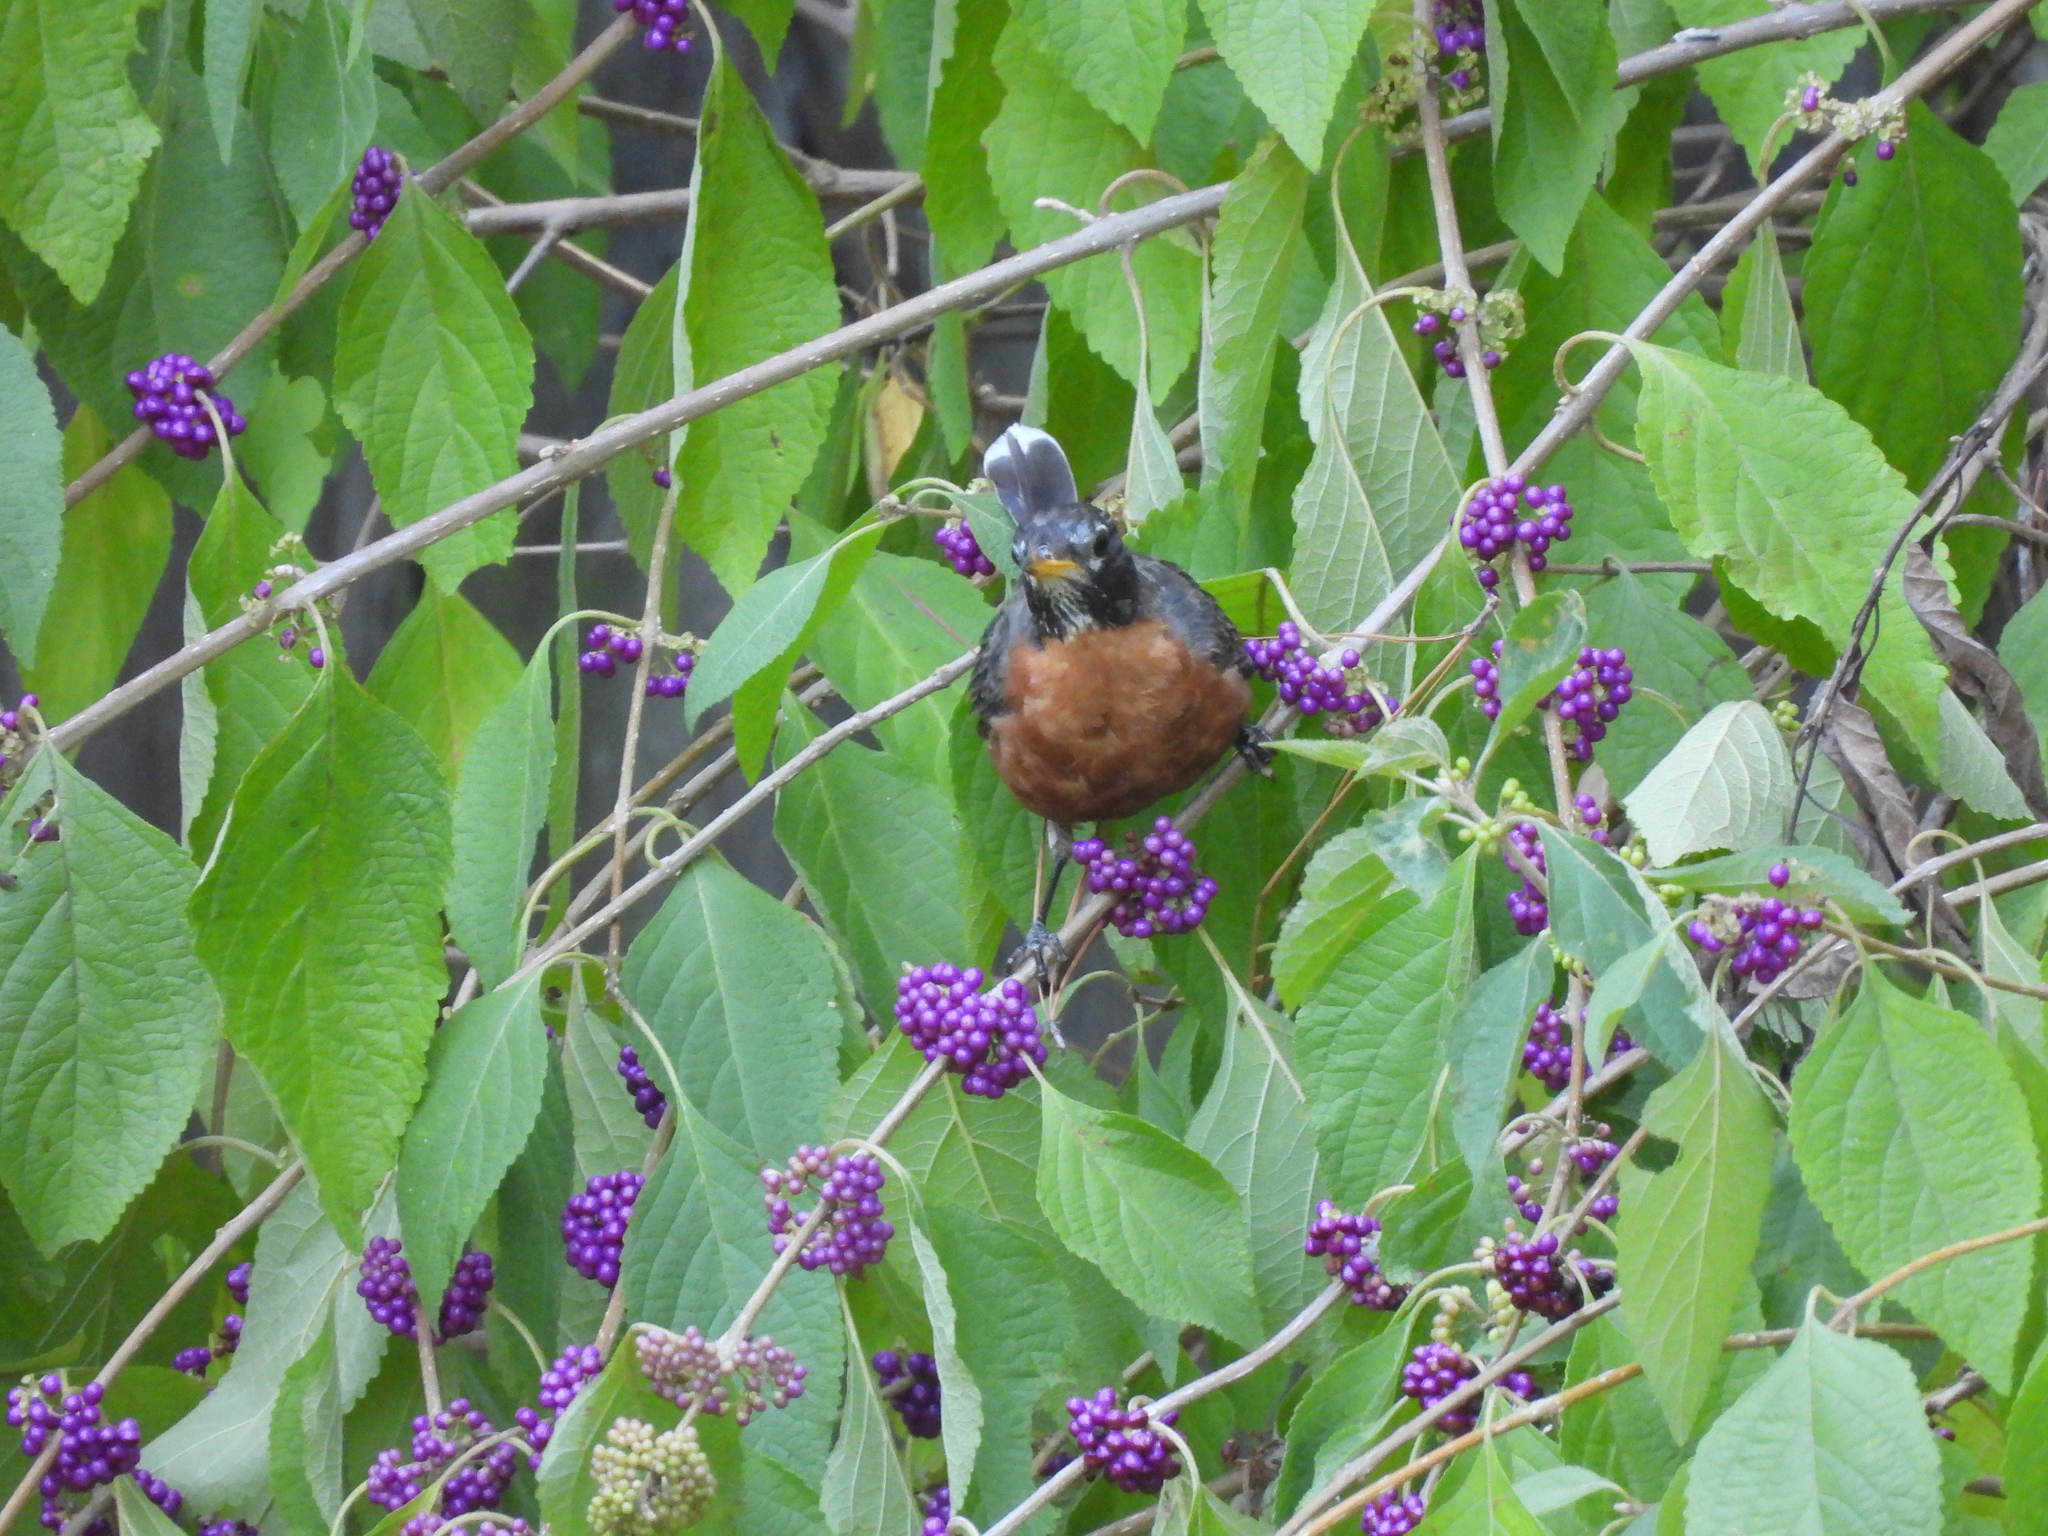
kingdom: Animalia
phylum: Chordata
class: Aves
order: Passeriformes
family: Turdidae
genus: Turdus
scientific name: Turdus migratorius
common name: American robin
